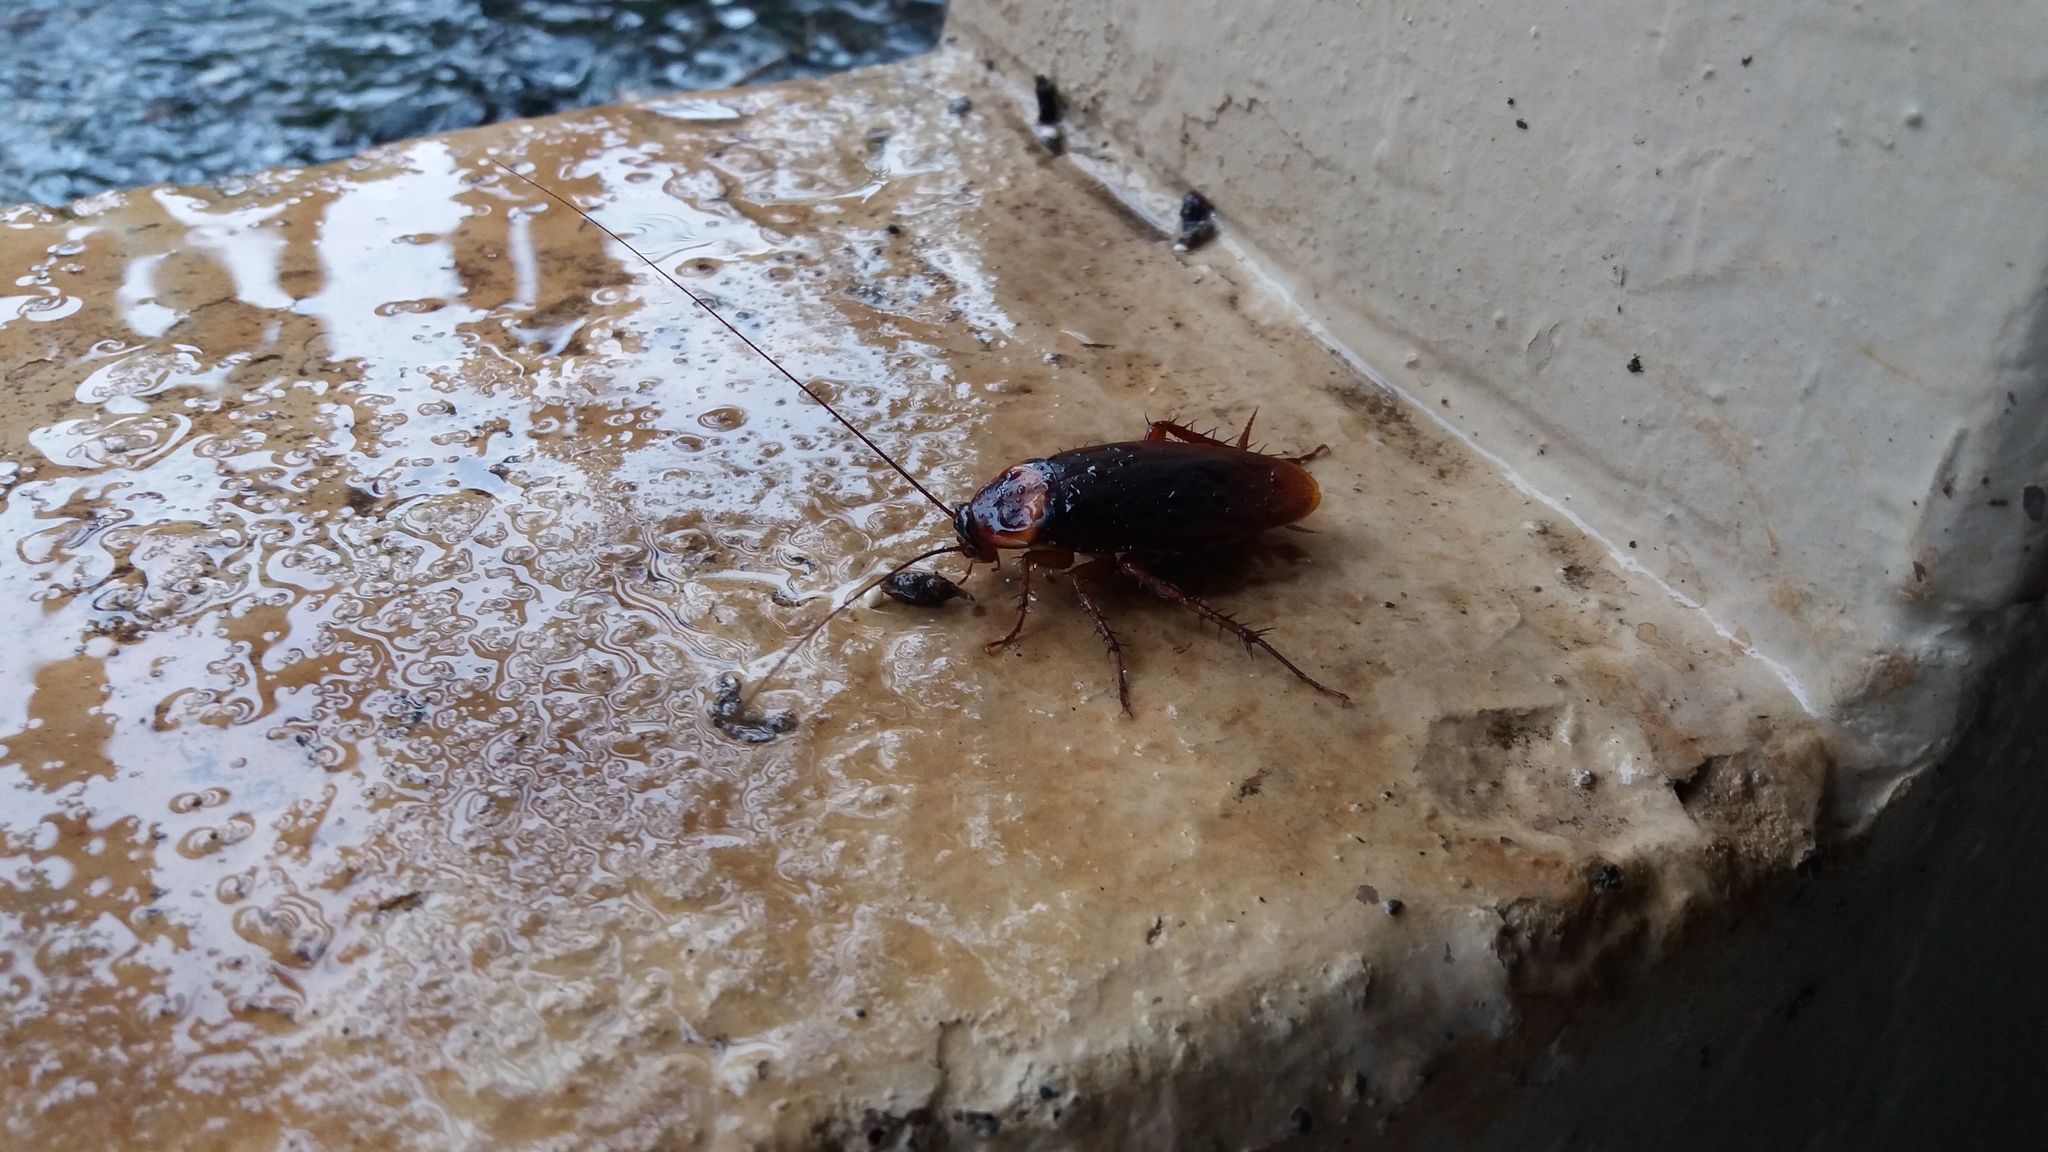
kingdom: Animalia
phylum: Arthropoda
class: Insecta
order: Blattodea
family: Blattidae
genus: Periplaneta
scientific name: Periplaneta americana
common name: American cockroach
